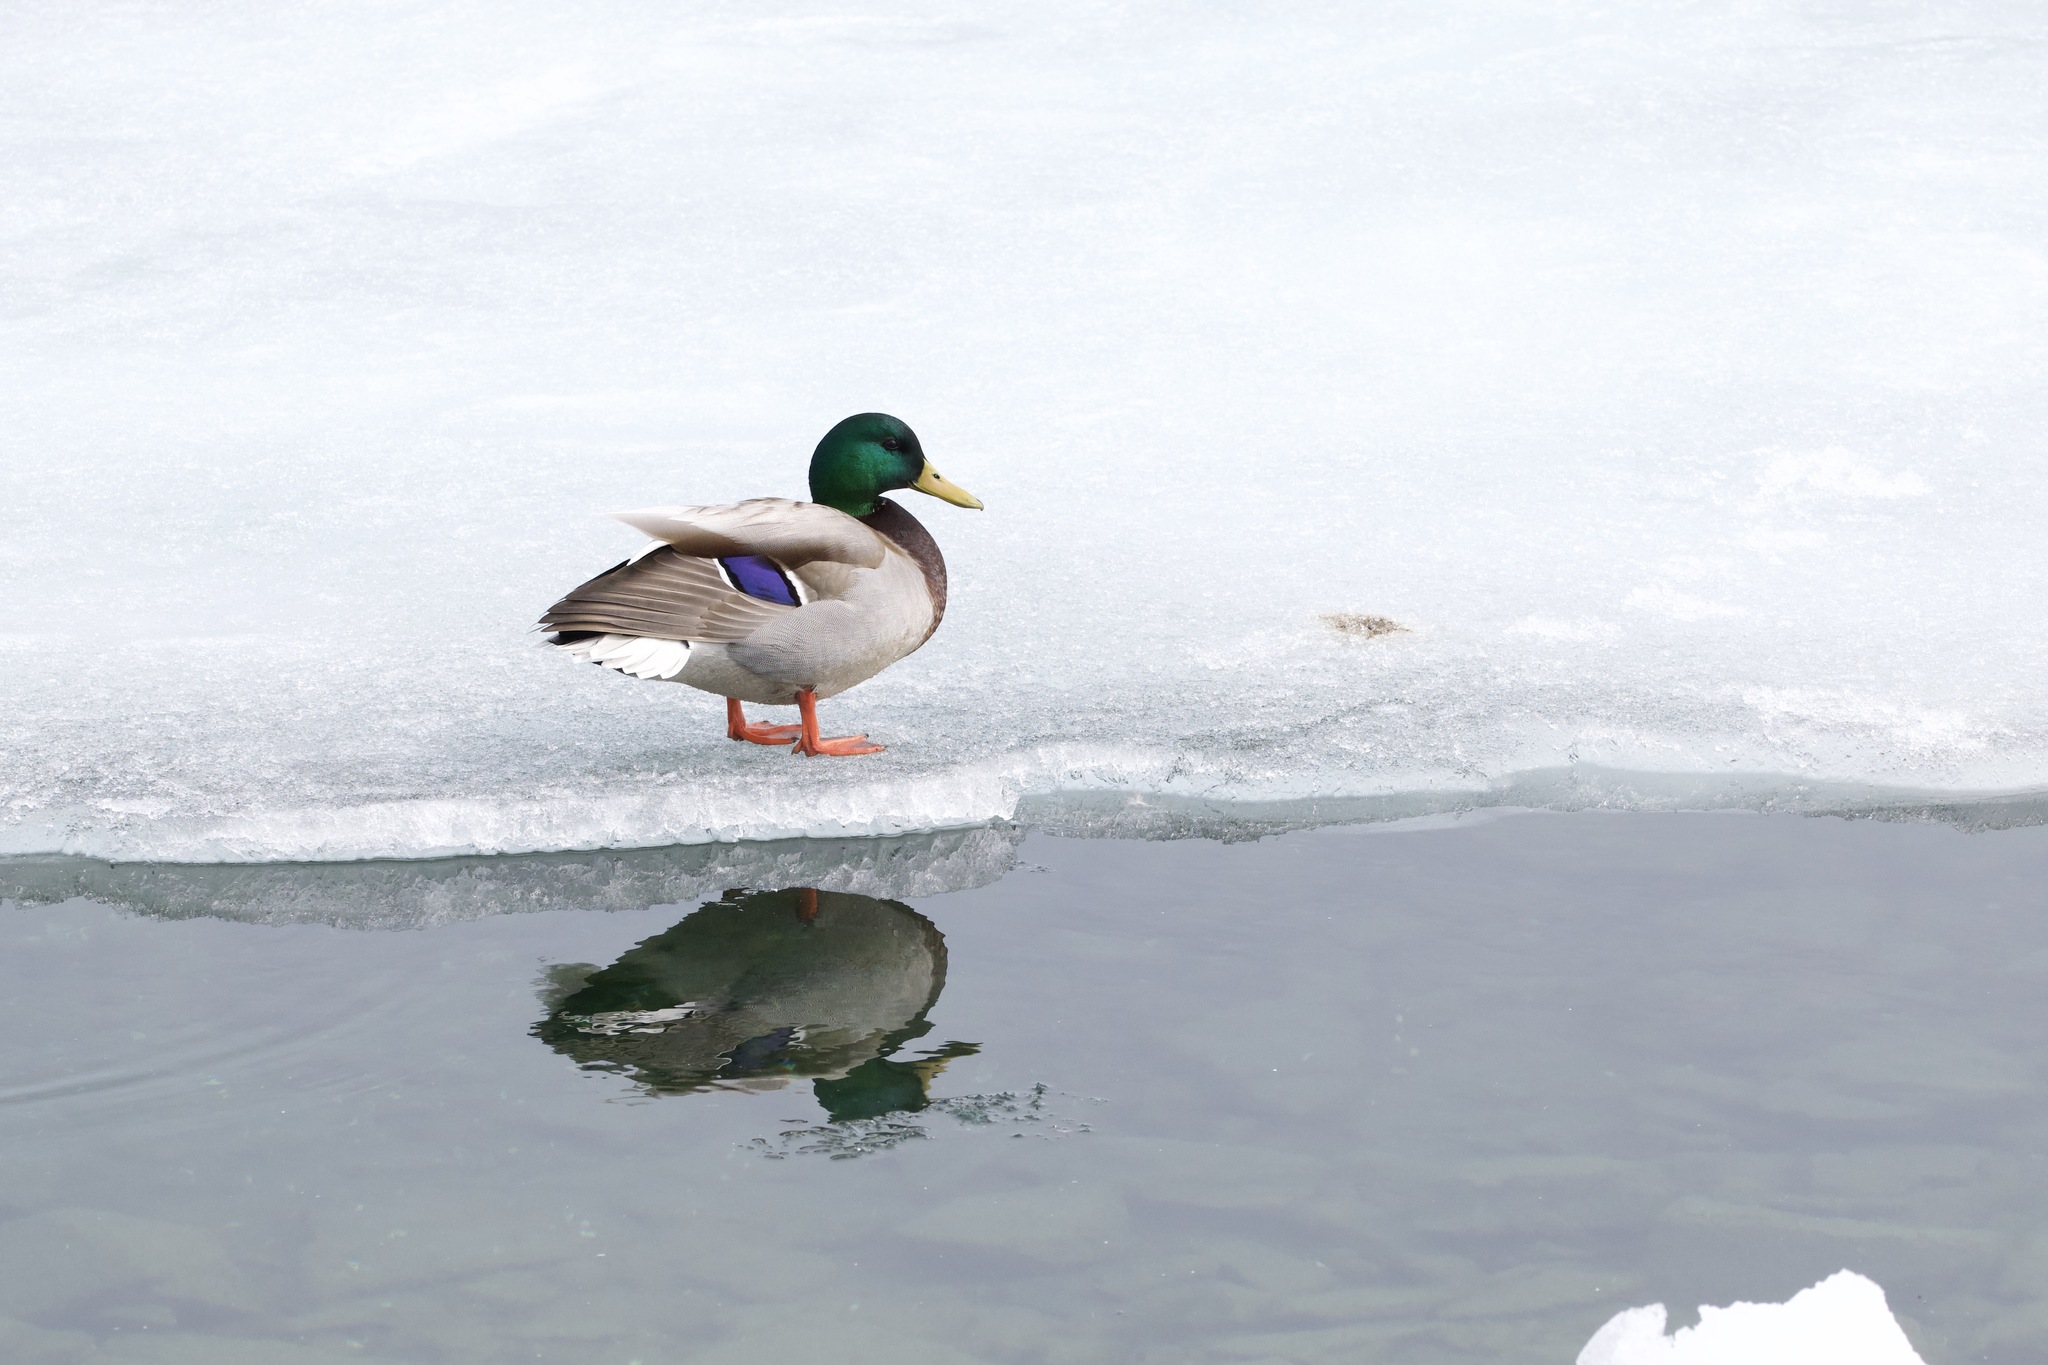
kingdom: Animalia
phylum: Chordata
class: Aves
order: Anseriformes
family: Anatidae
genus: Anas
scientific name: Anas platyrhynchos
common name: Mallard
